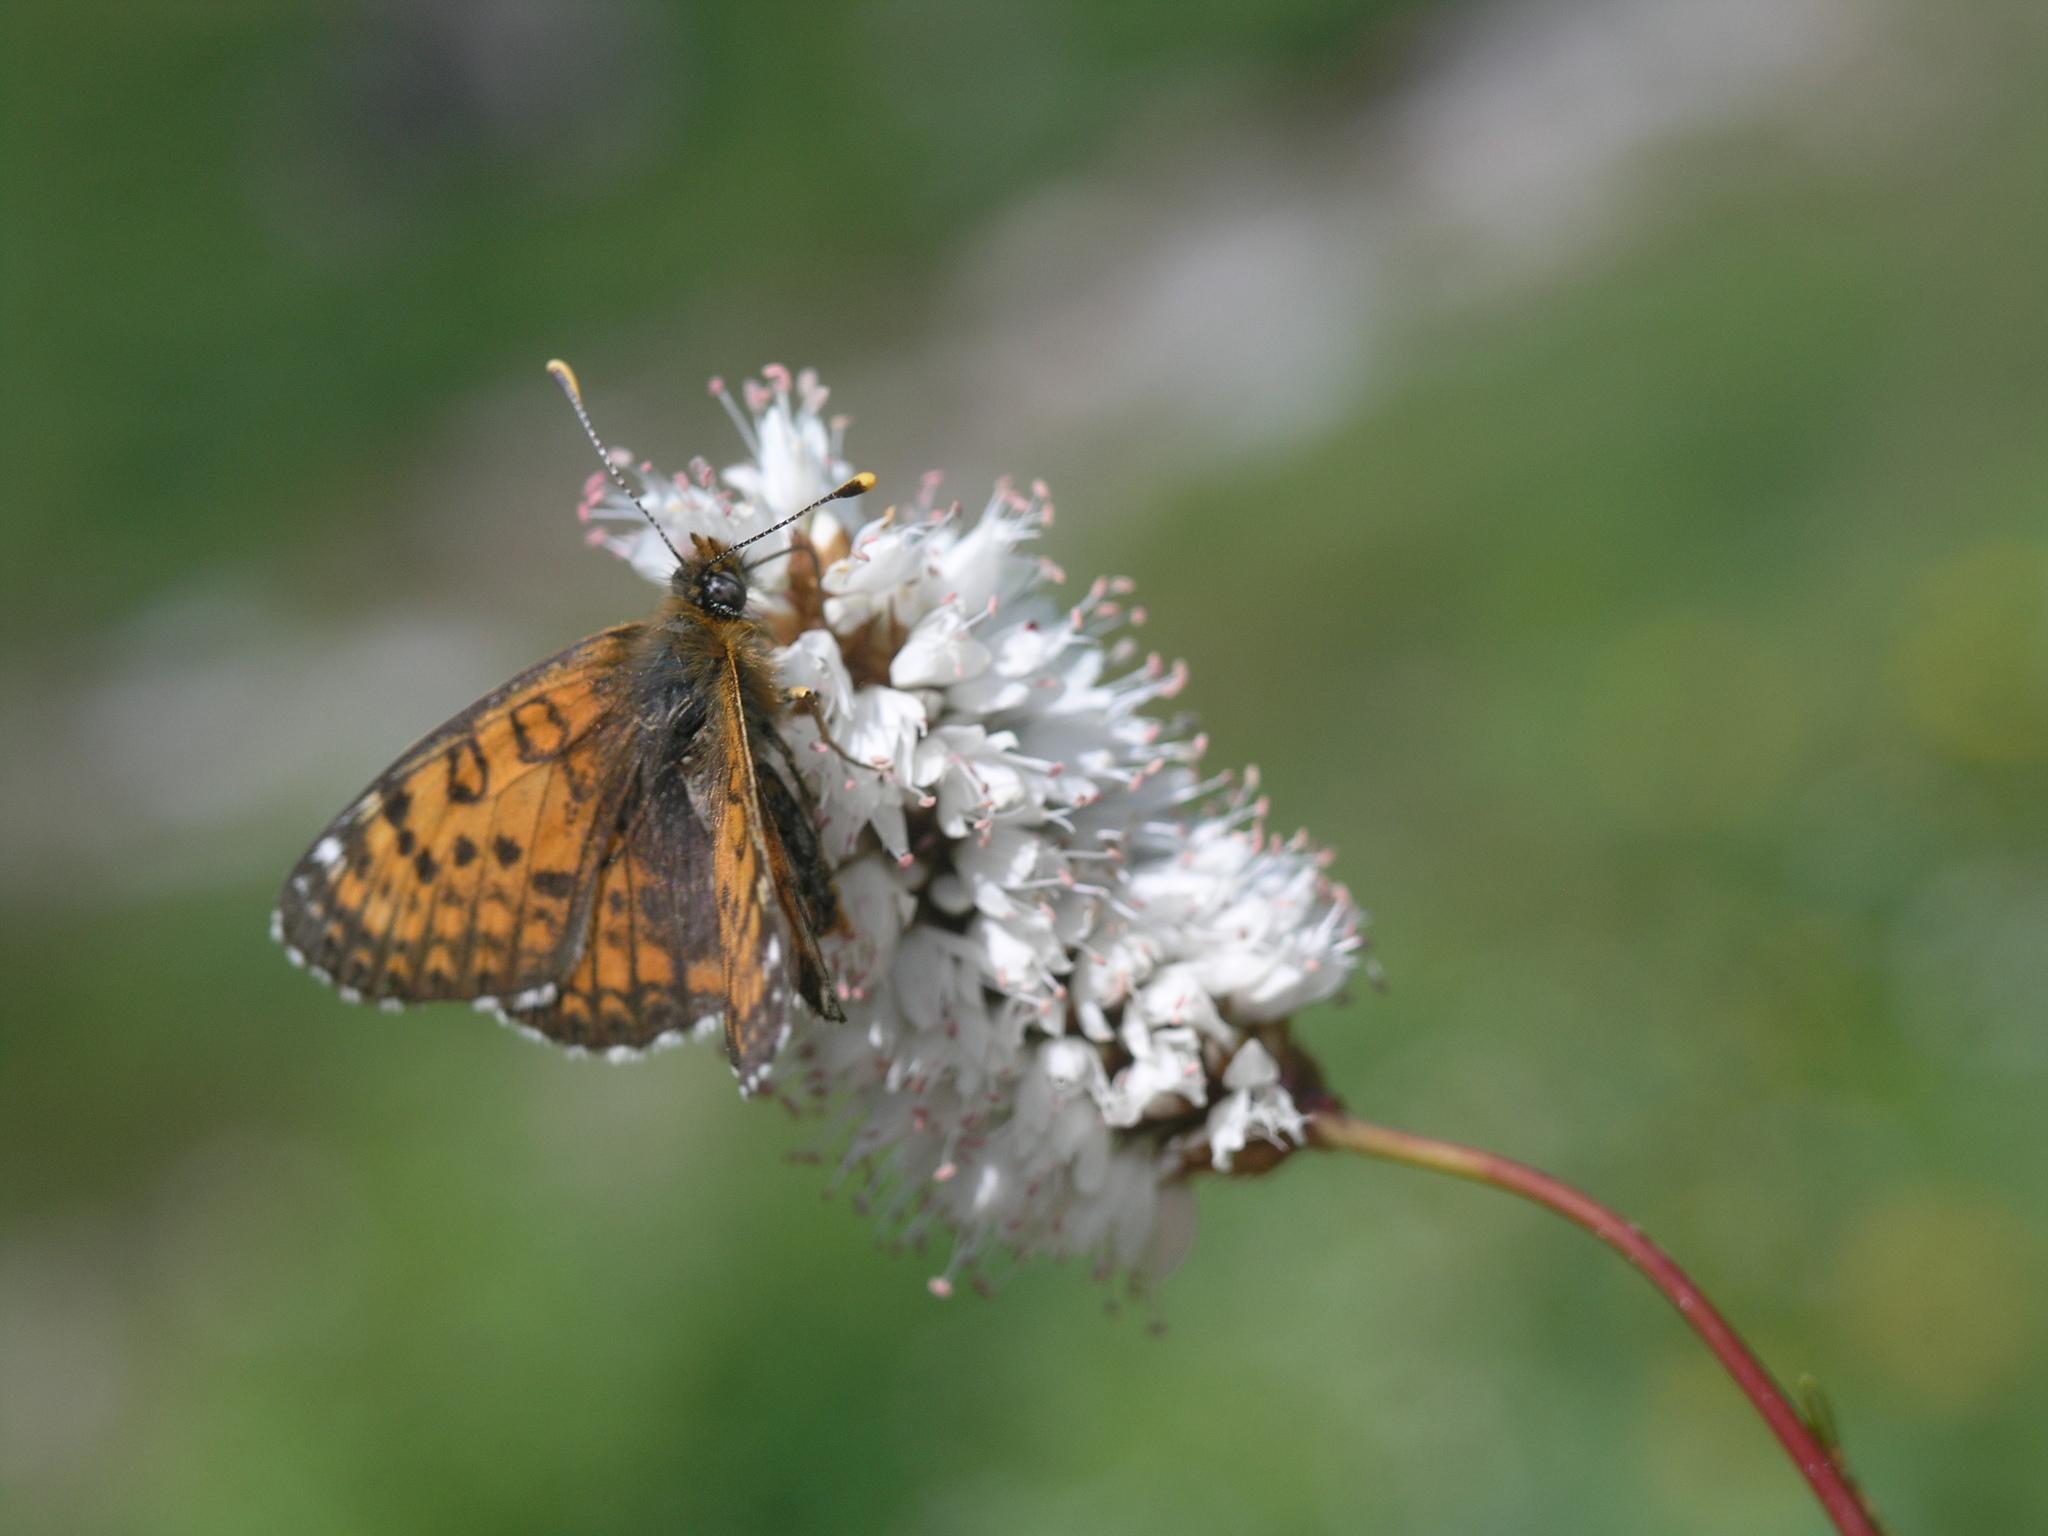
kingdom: Animalia
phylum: Arthropoda
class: Insecta
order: Lepidoptera
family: Nymphalidae
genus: Melitaea
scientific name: Melitaea minerva
